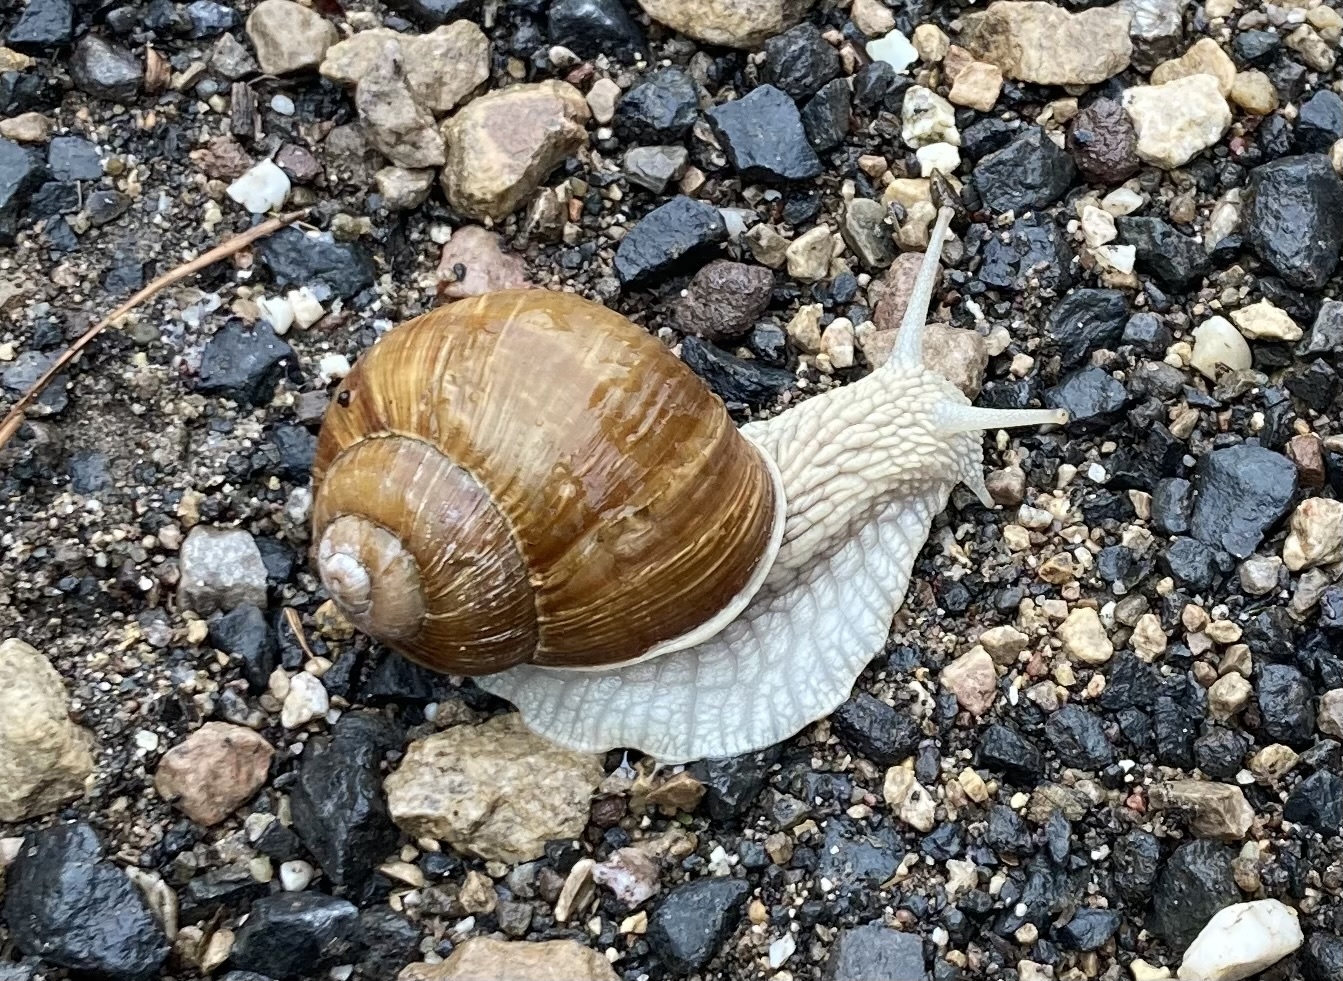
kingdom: Animalia
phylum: Mollusca
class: Gastropoda
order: Stylommatophora
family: Helicidae
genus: Helix
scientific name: Helix pomatia
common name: Roman snail
